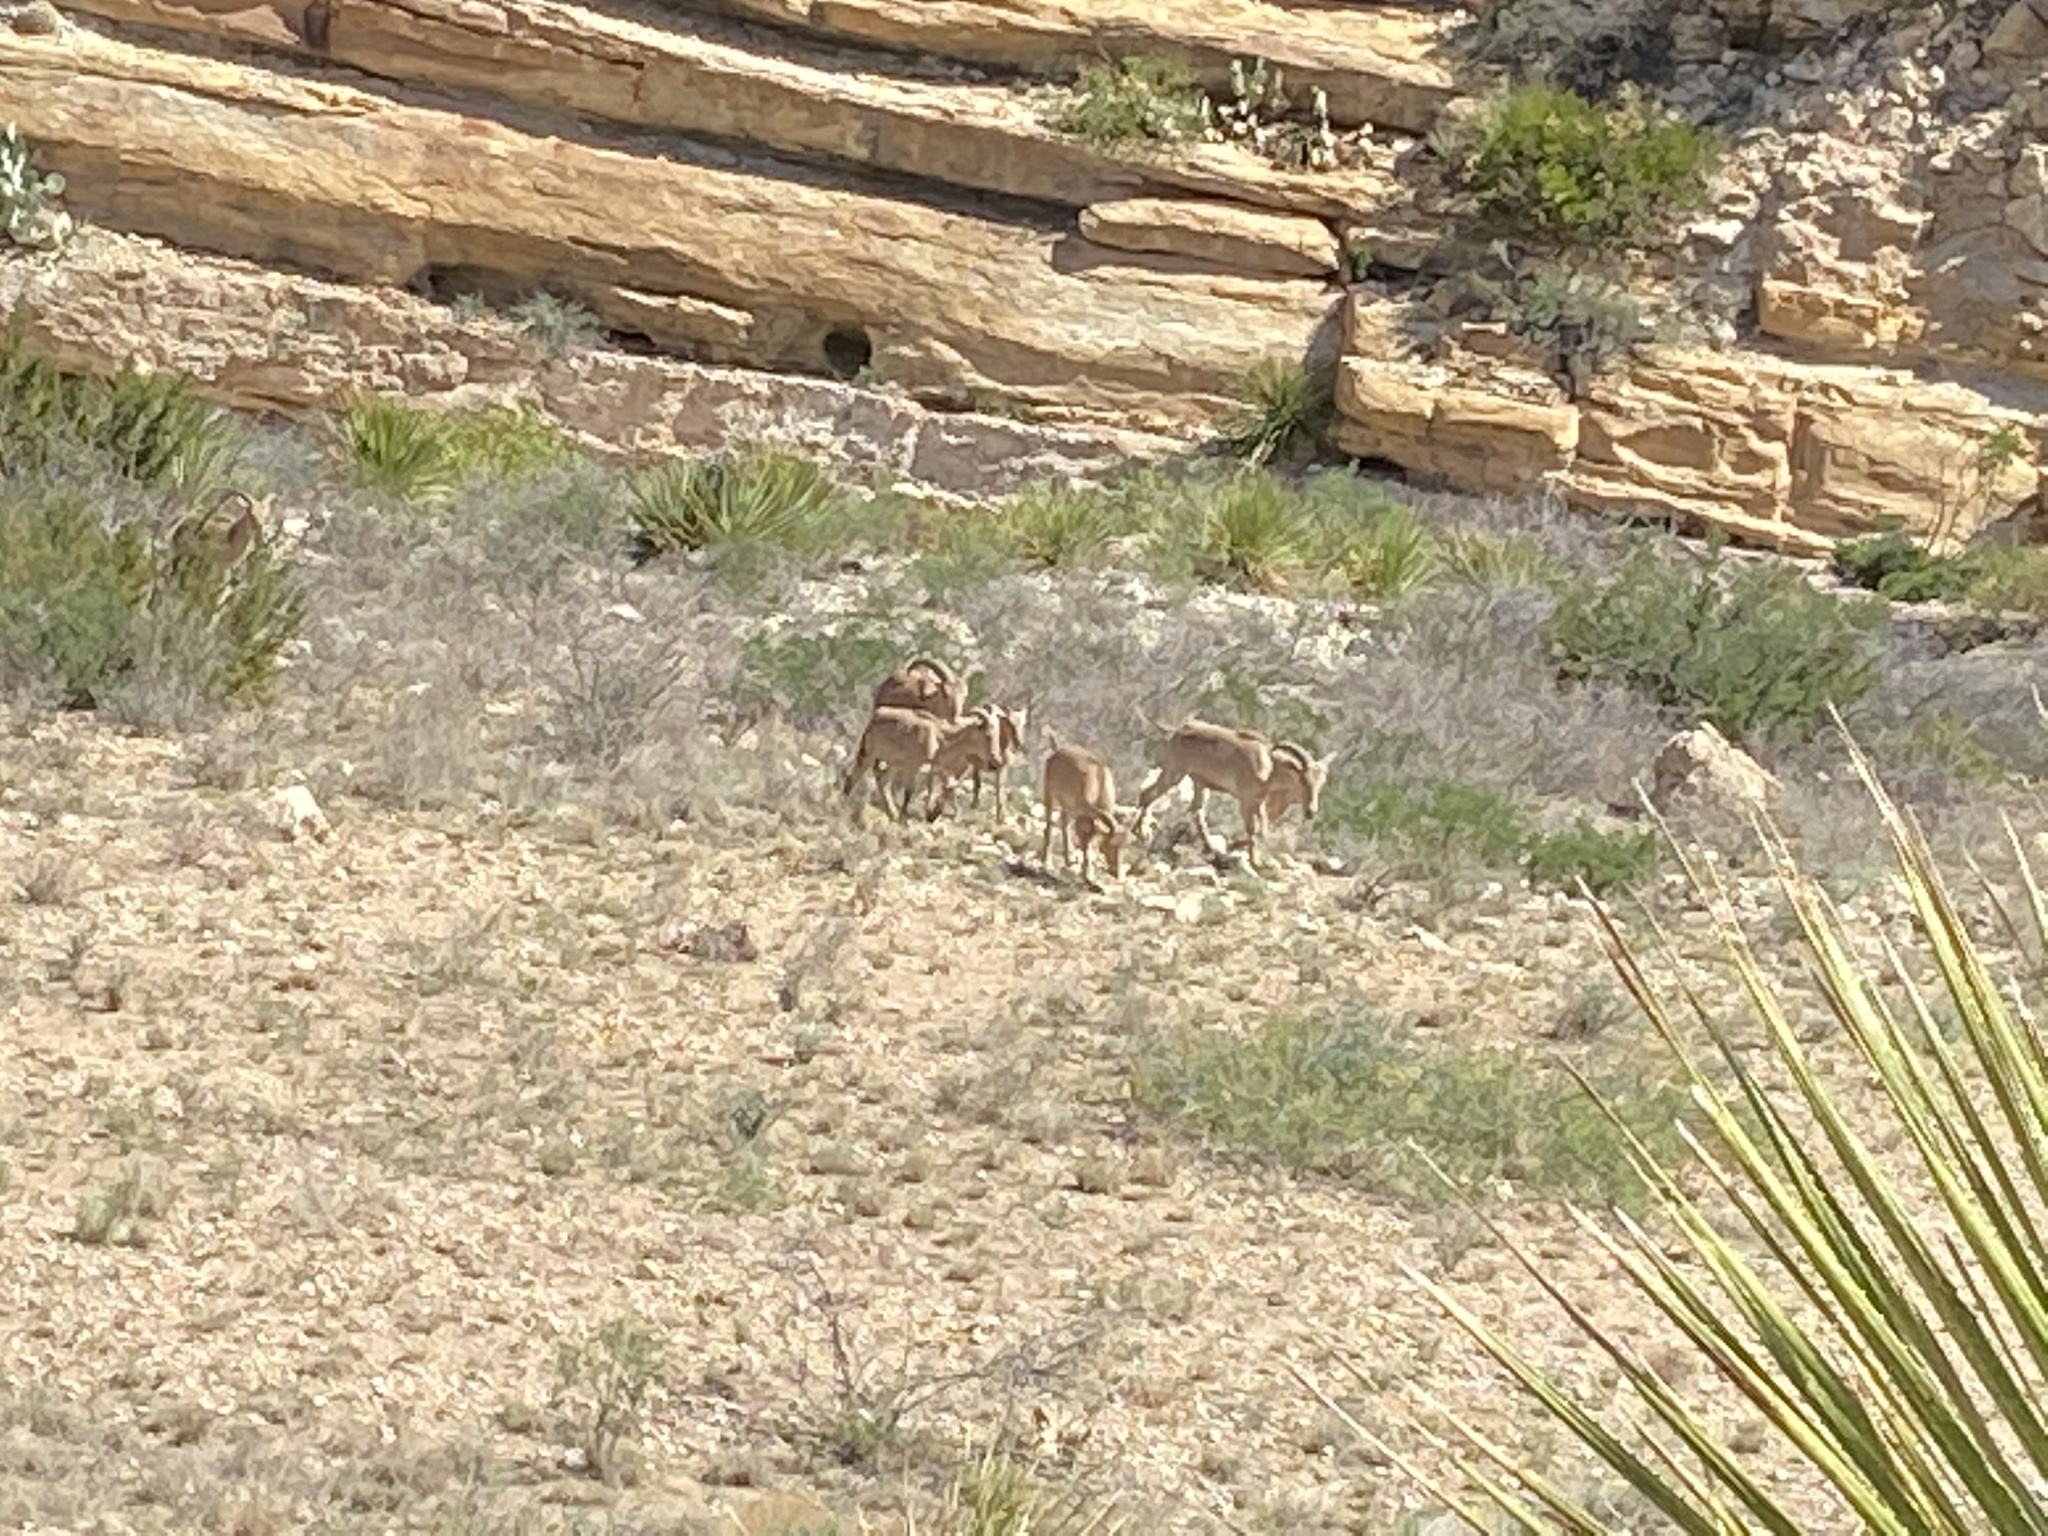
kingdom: Animalia
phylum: Chordata
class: Mammalia
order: Artiodactyla
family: Bovidae
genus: Ammotragus
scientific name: Ammotragus lervia
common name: Barbary sheep
